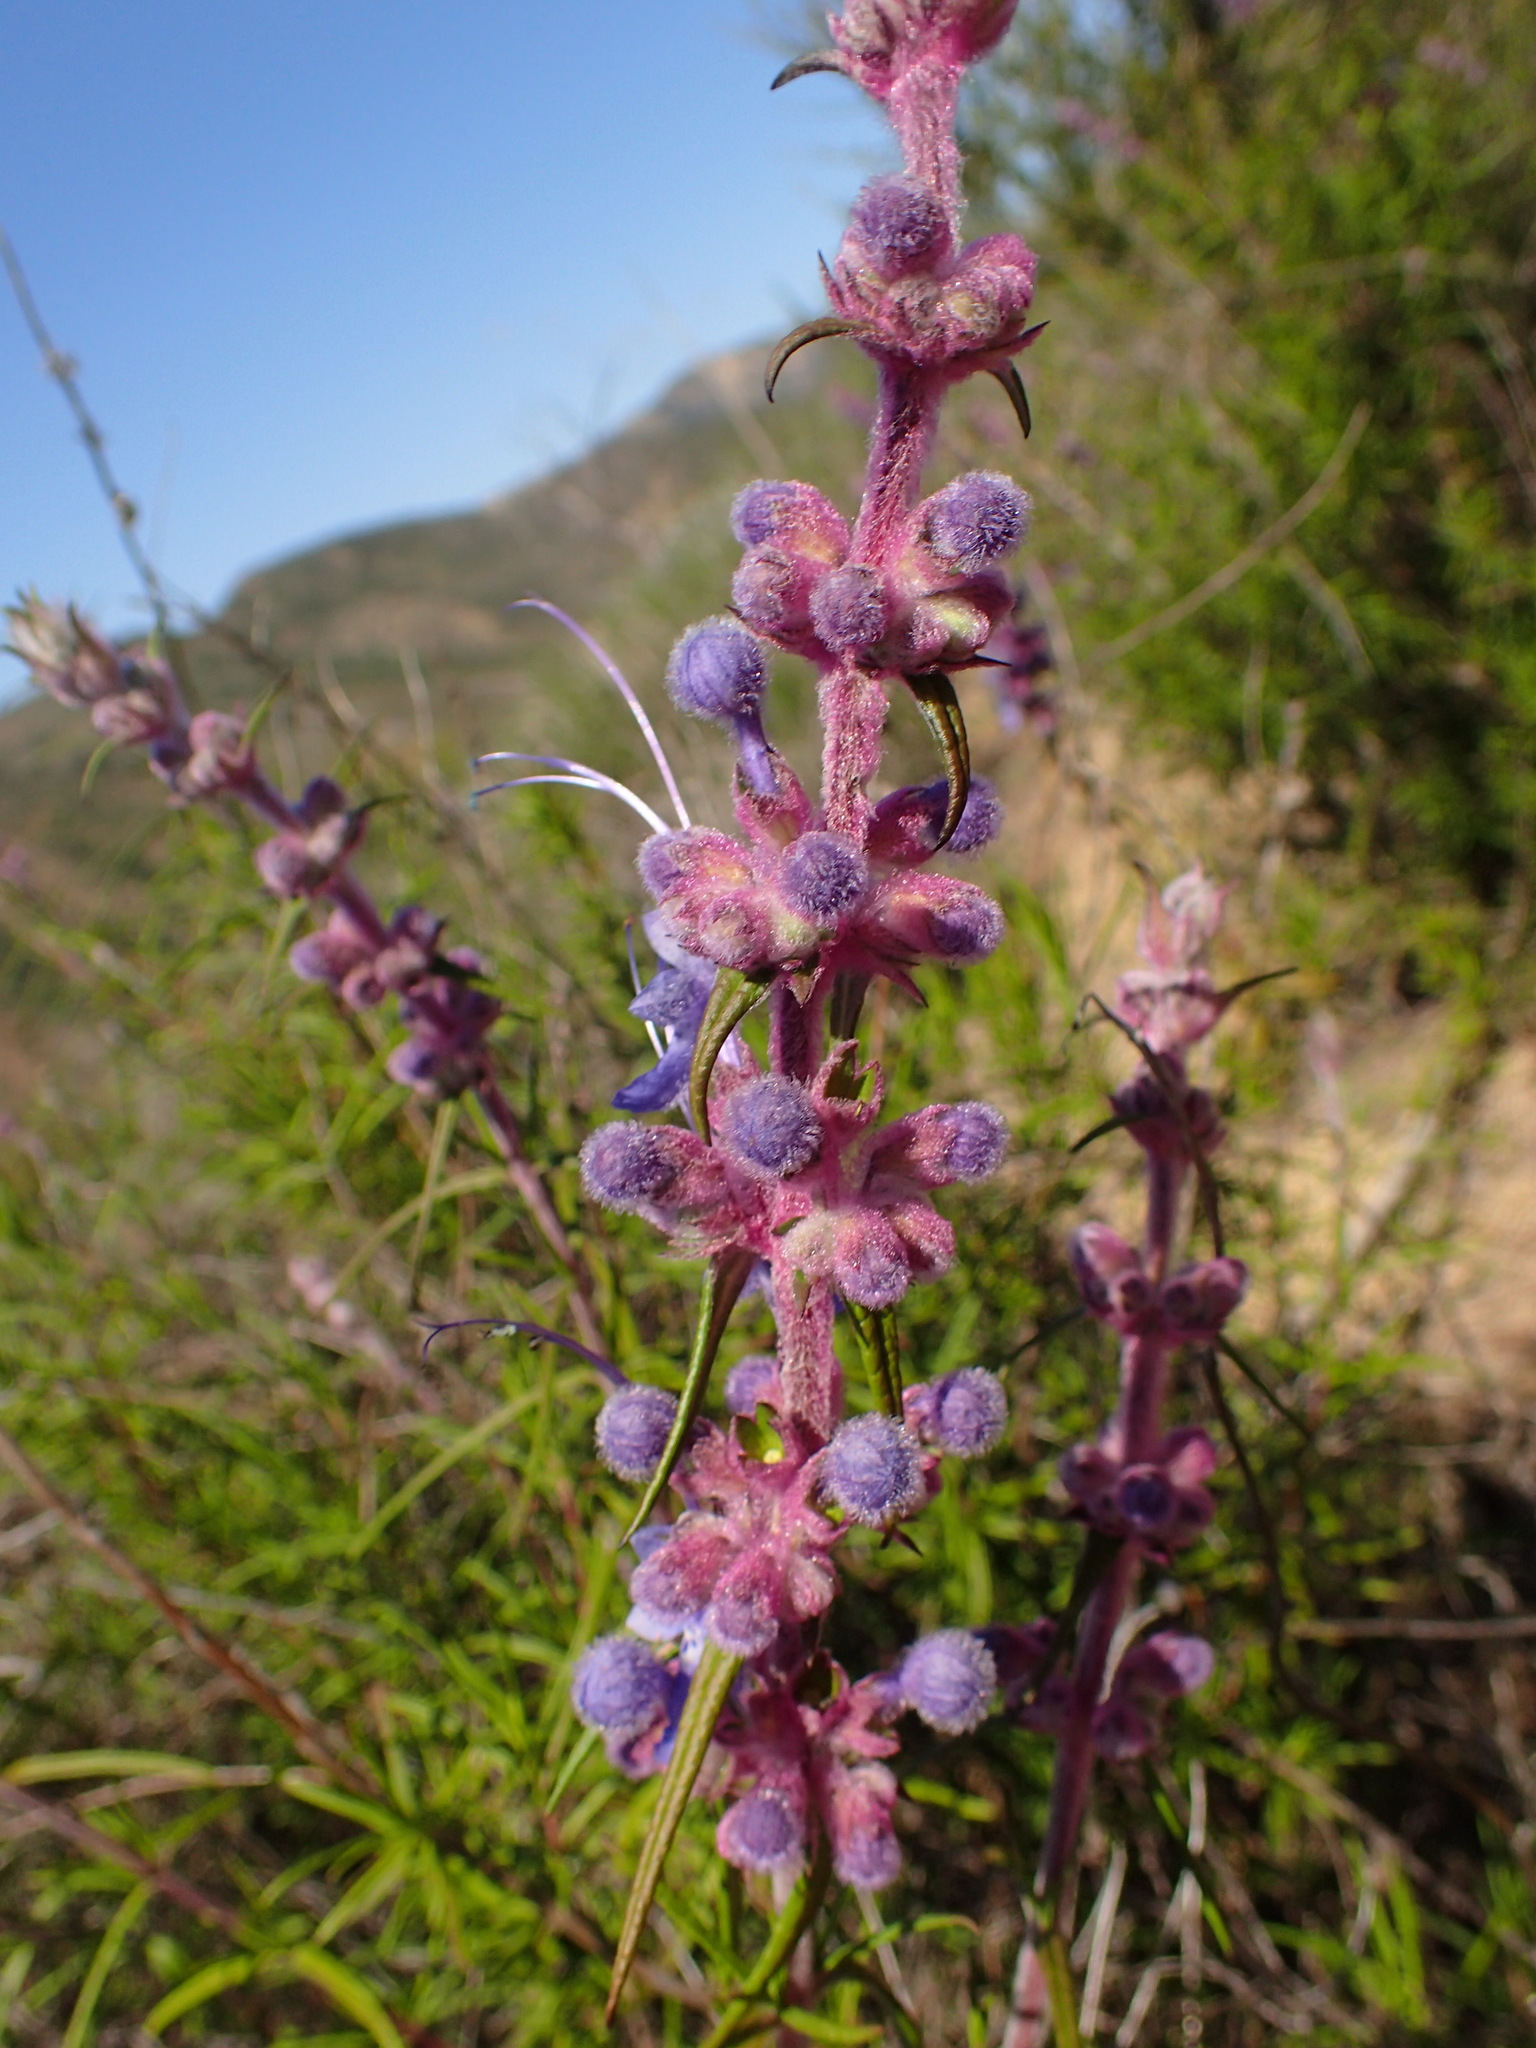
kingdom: Plantae
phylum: Tracheophyta
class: Magnoliopsida
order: Lamiales
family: Lamiaceae
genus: Trichostema
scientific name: Trichostema lanatum
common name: Woolly bluecurls
